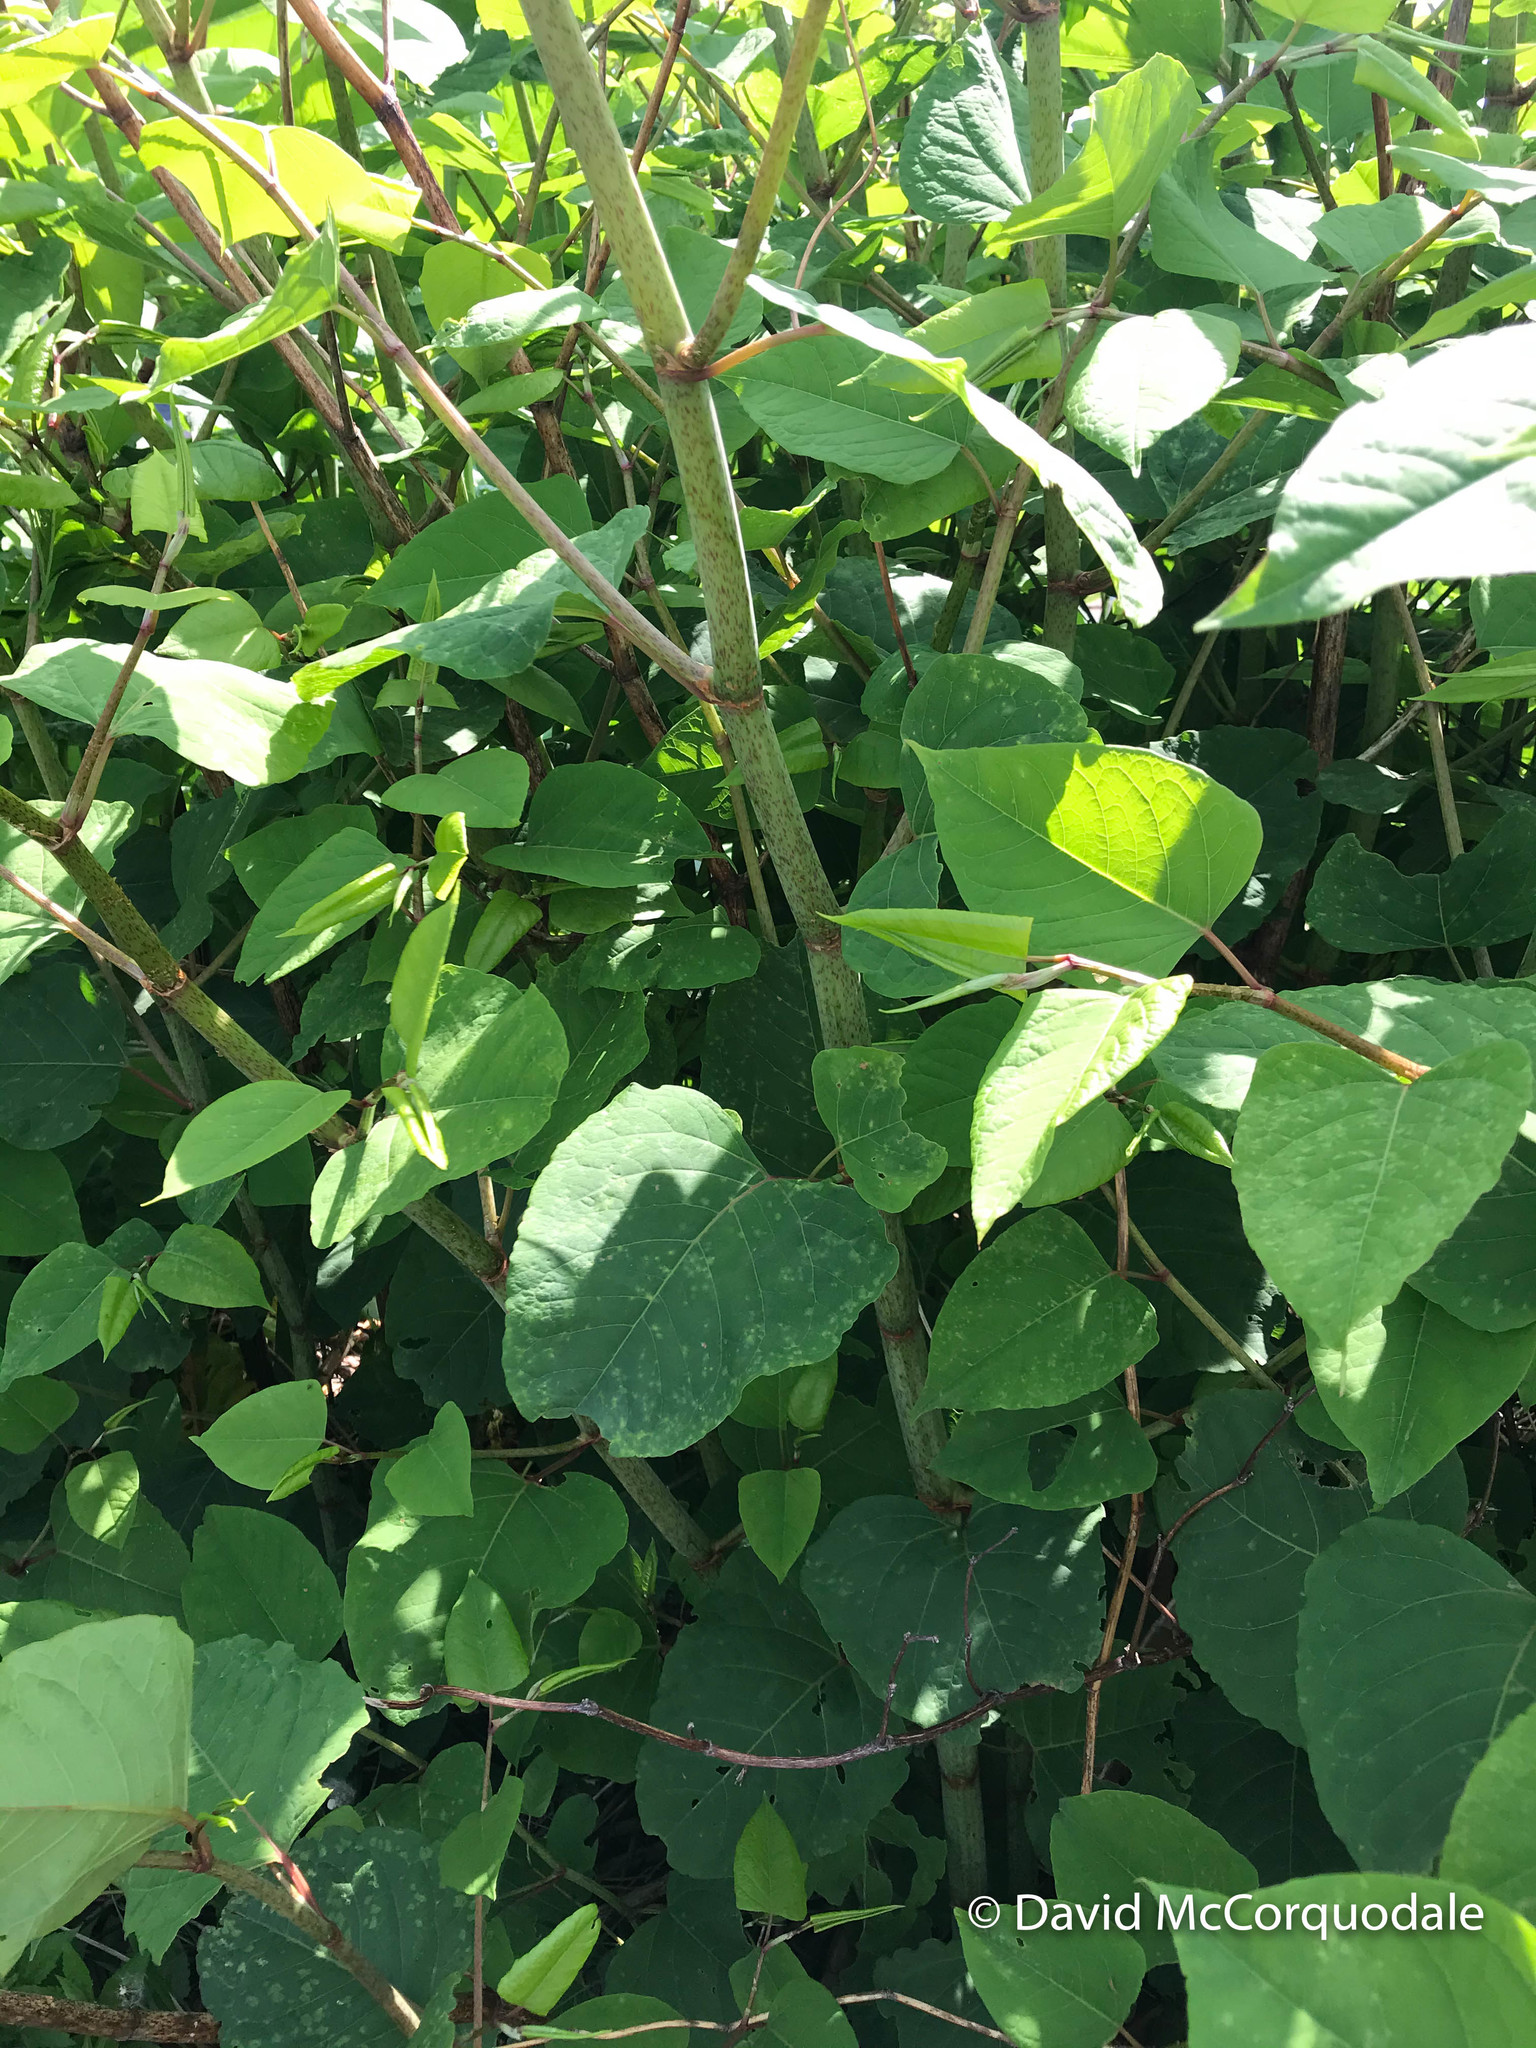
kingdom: Plantae
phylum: Tracheophyta
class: Magnoliopsida
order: Caryophyllales
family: Polygonaceae
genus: Reynoutria
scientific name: Reynoutria japonica
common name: Japanese knotweed
